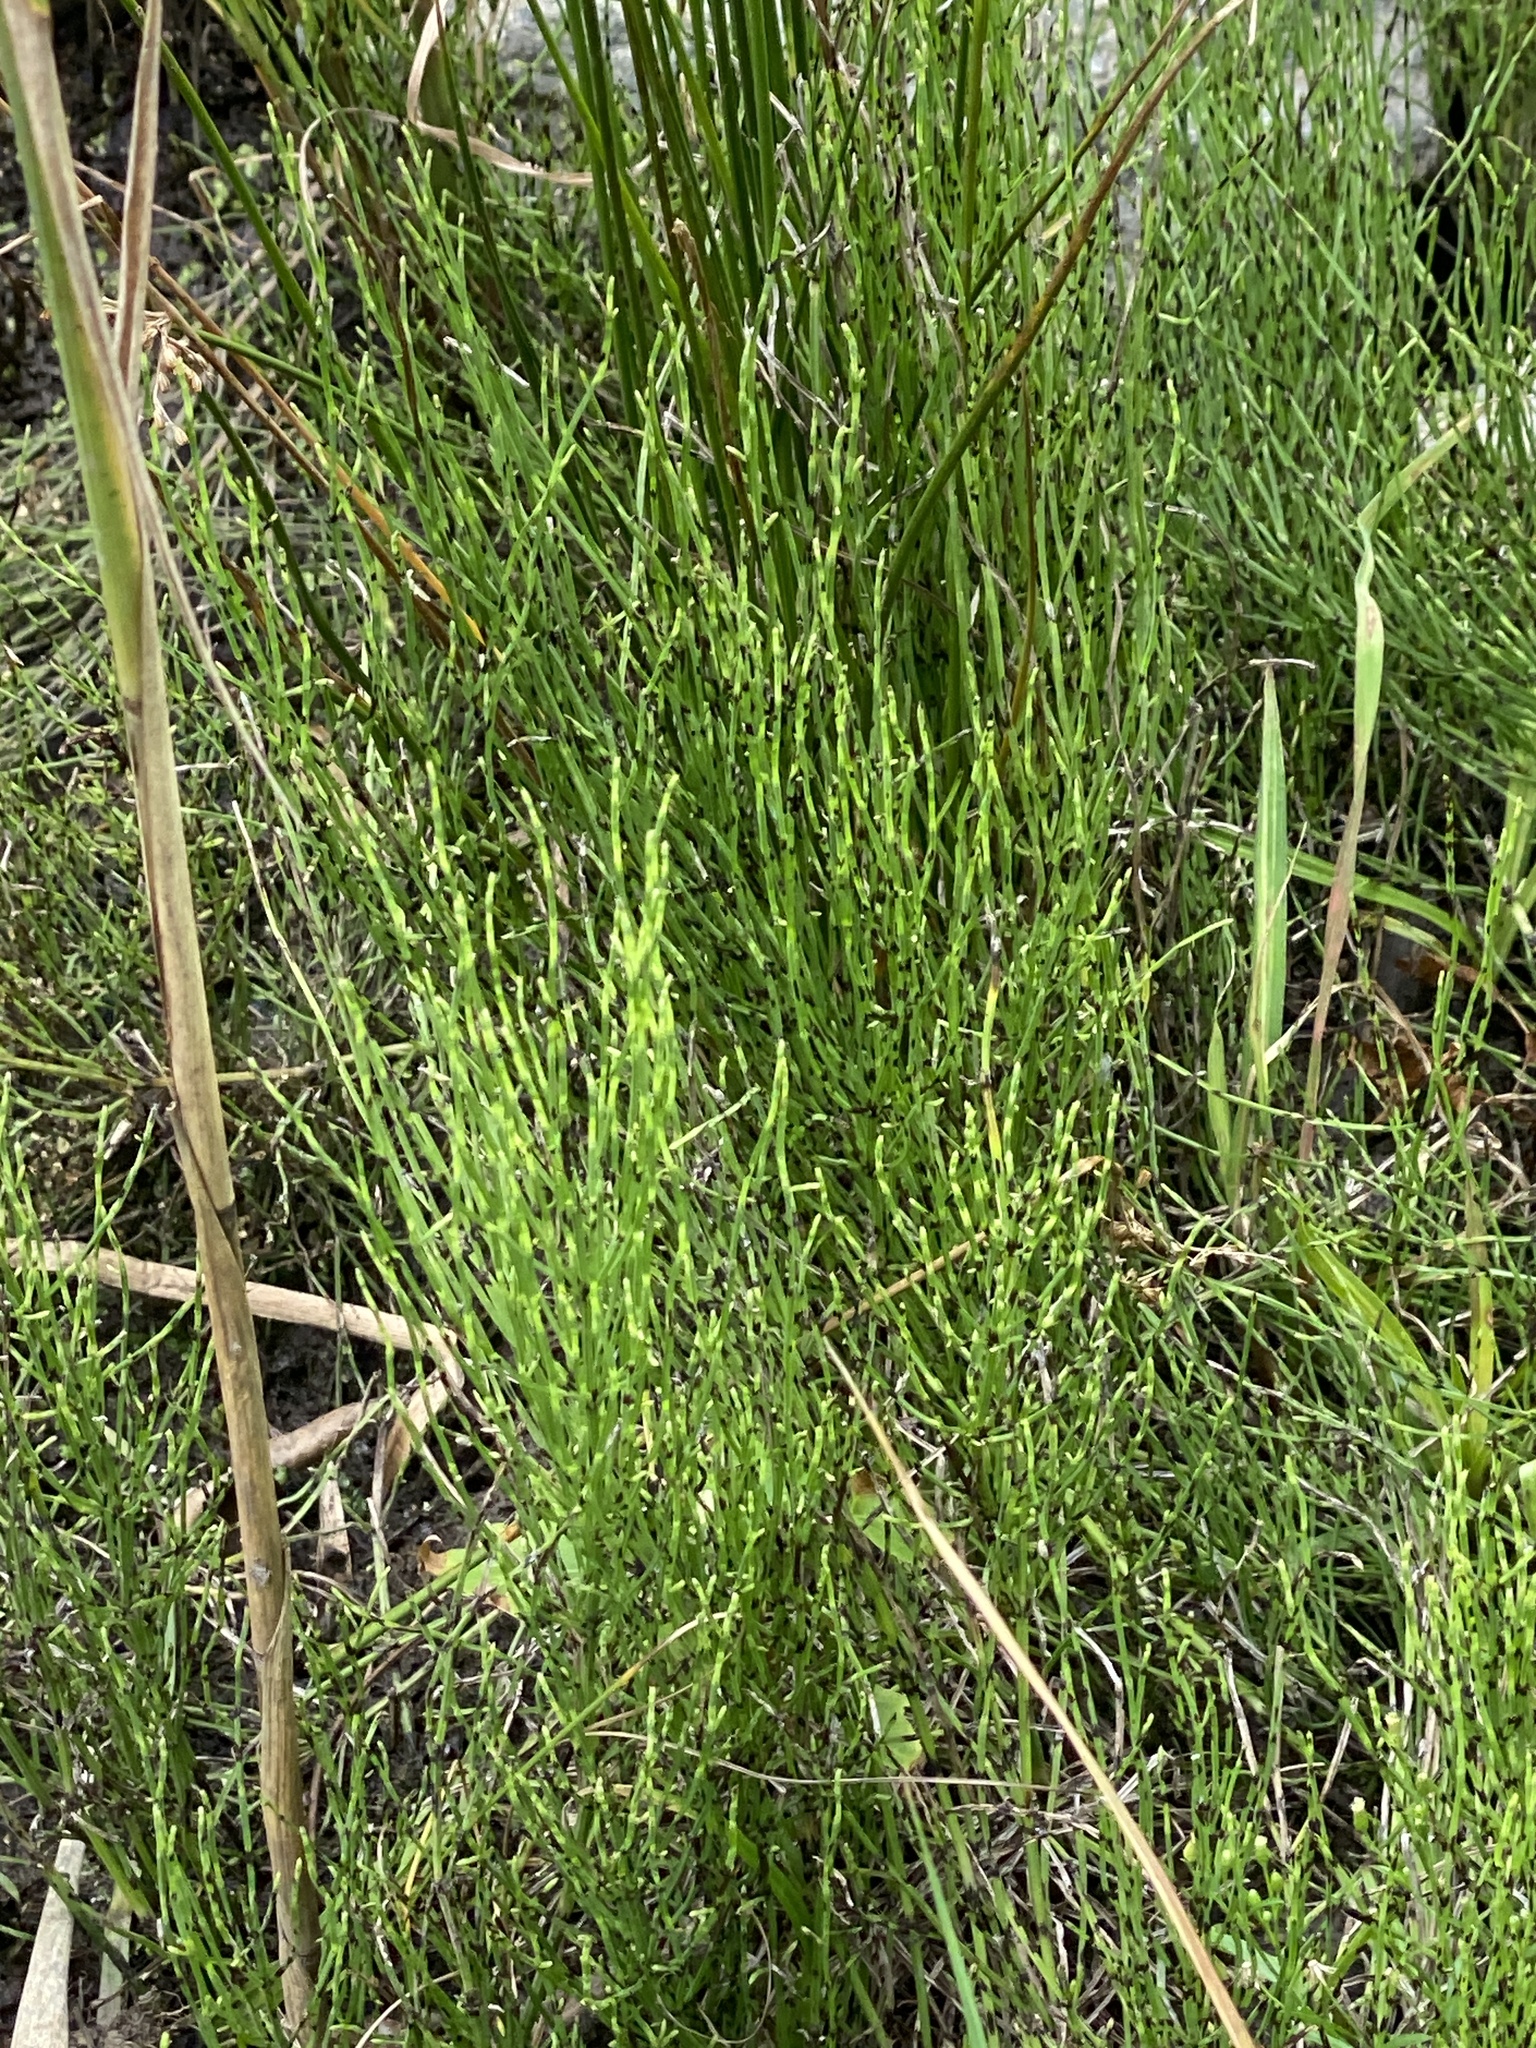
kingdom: Plantae
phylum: Tracheophyta
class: Polypodiopsida
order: Equisetales
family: Equisetaceae
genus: Equisetum
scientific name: Equisetum arvense
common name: Field horsetail
